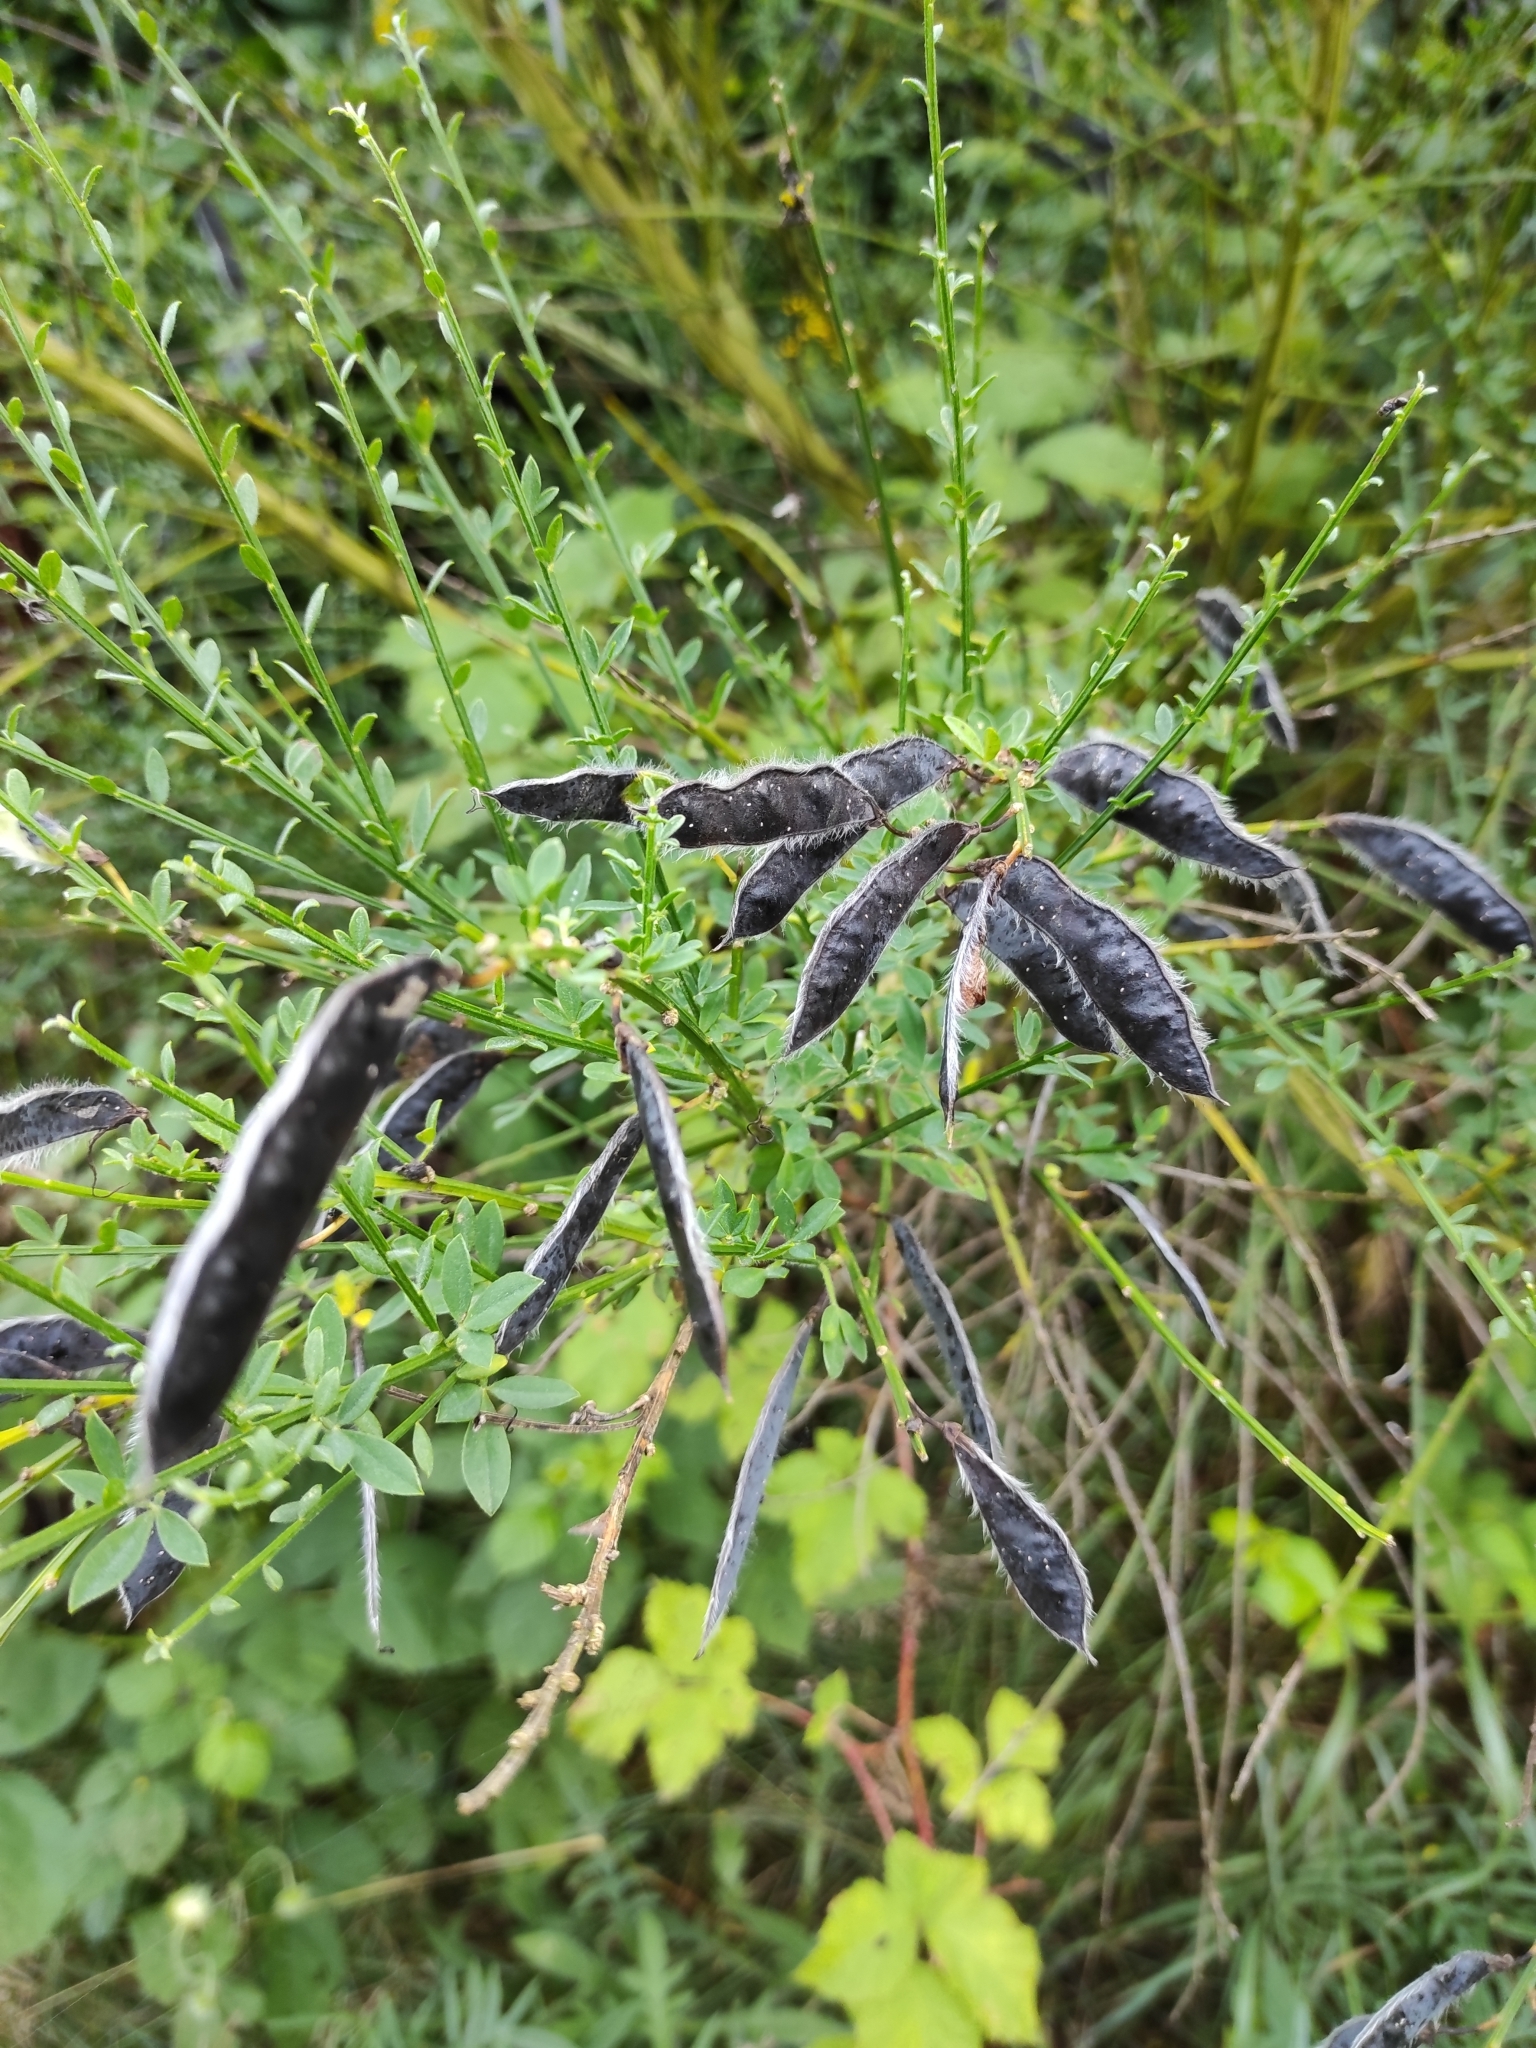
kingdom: Plantae
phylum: Tracheophyta
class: Magnoliopsida
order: Fabales
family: Fabaceae
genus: Cytisus
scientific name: Cytisus scoparius
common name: Scotch broom
